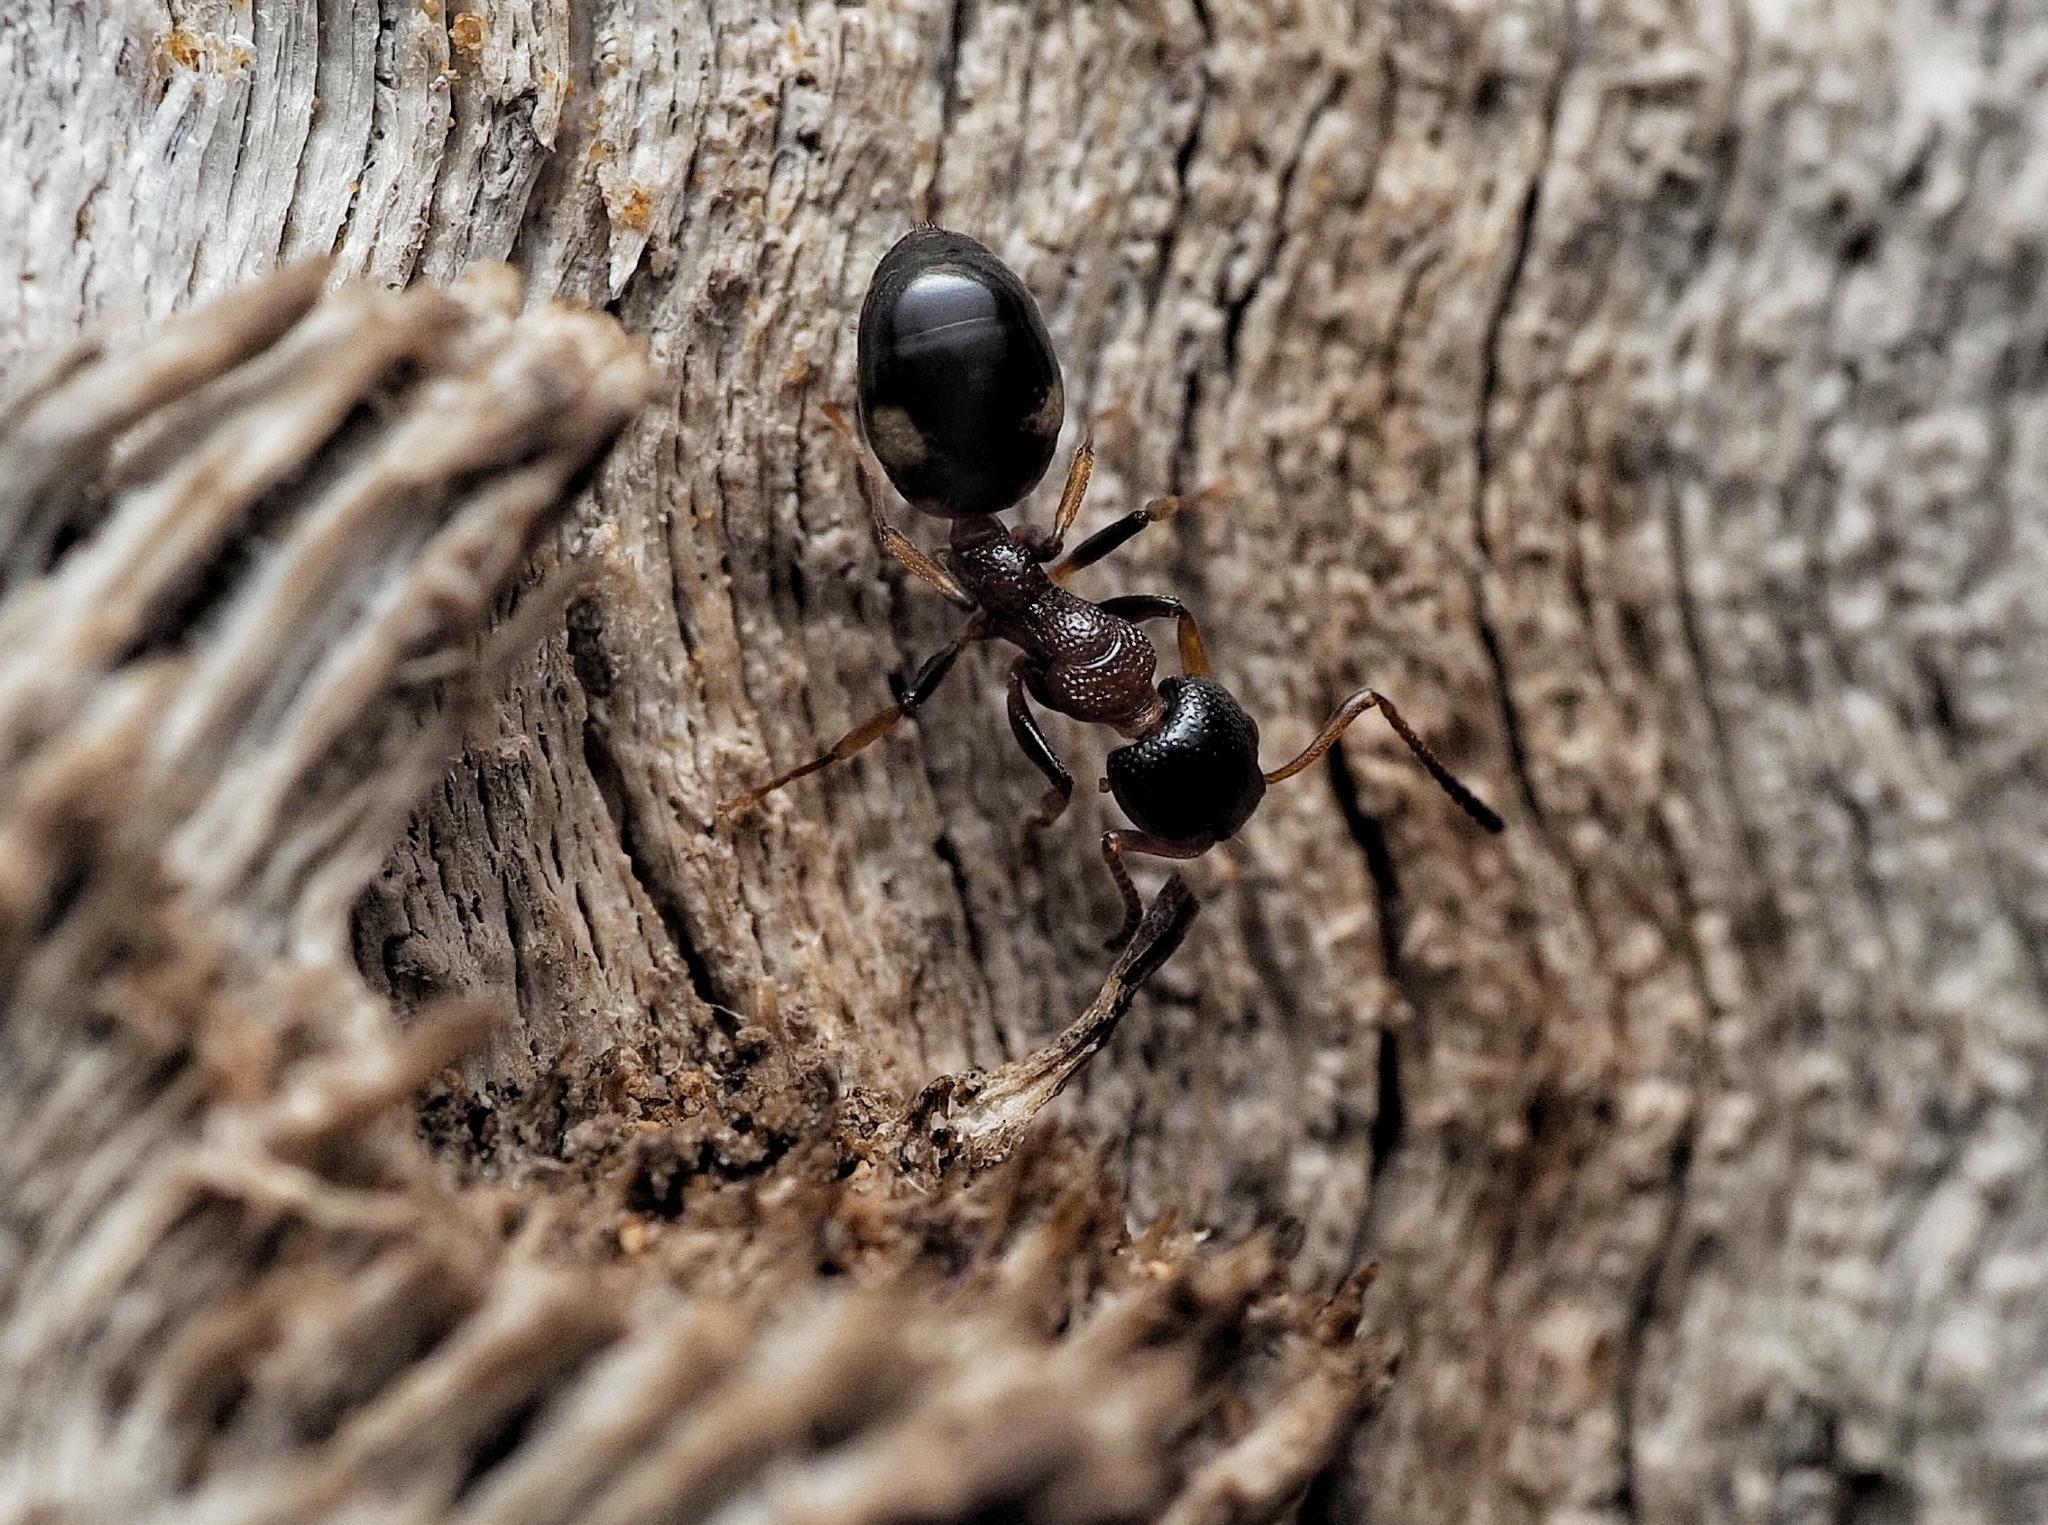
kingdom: Animalia
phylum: Arthropoda
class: Insecta
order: Hymenoptera
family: Formicidae
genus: Dolichoderus
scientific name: Dolichoderus quadripunctatus
